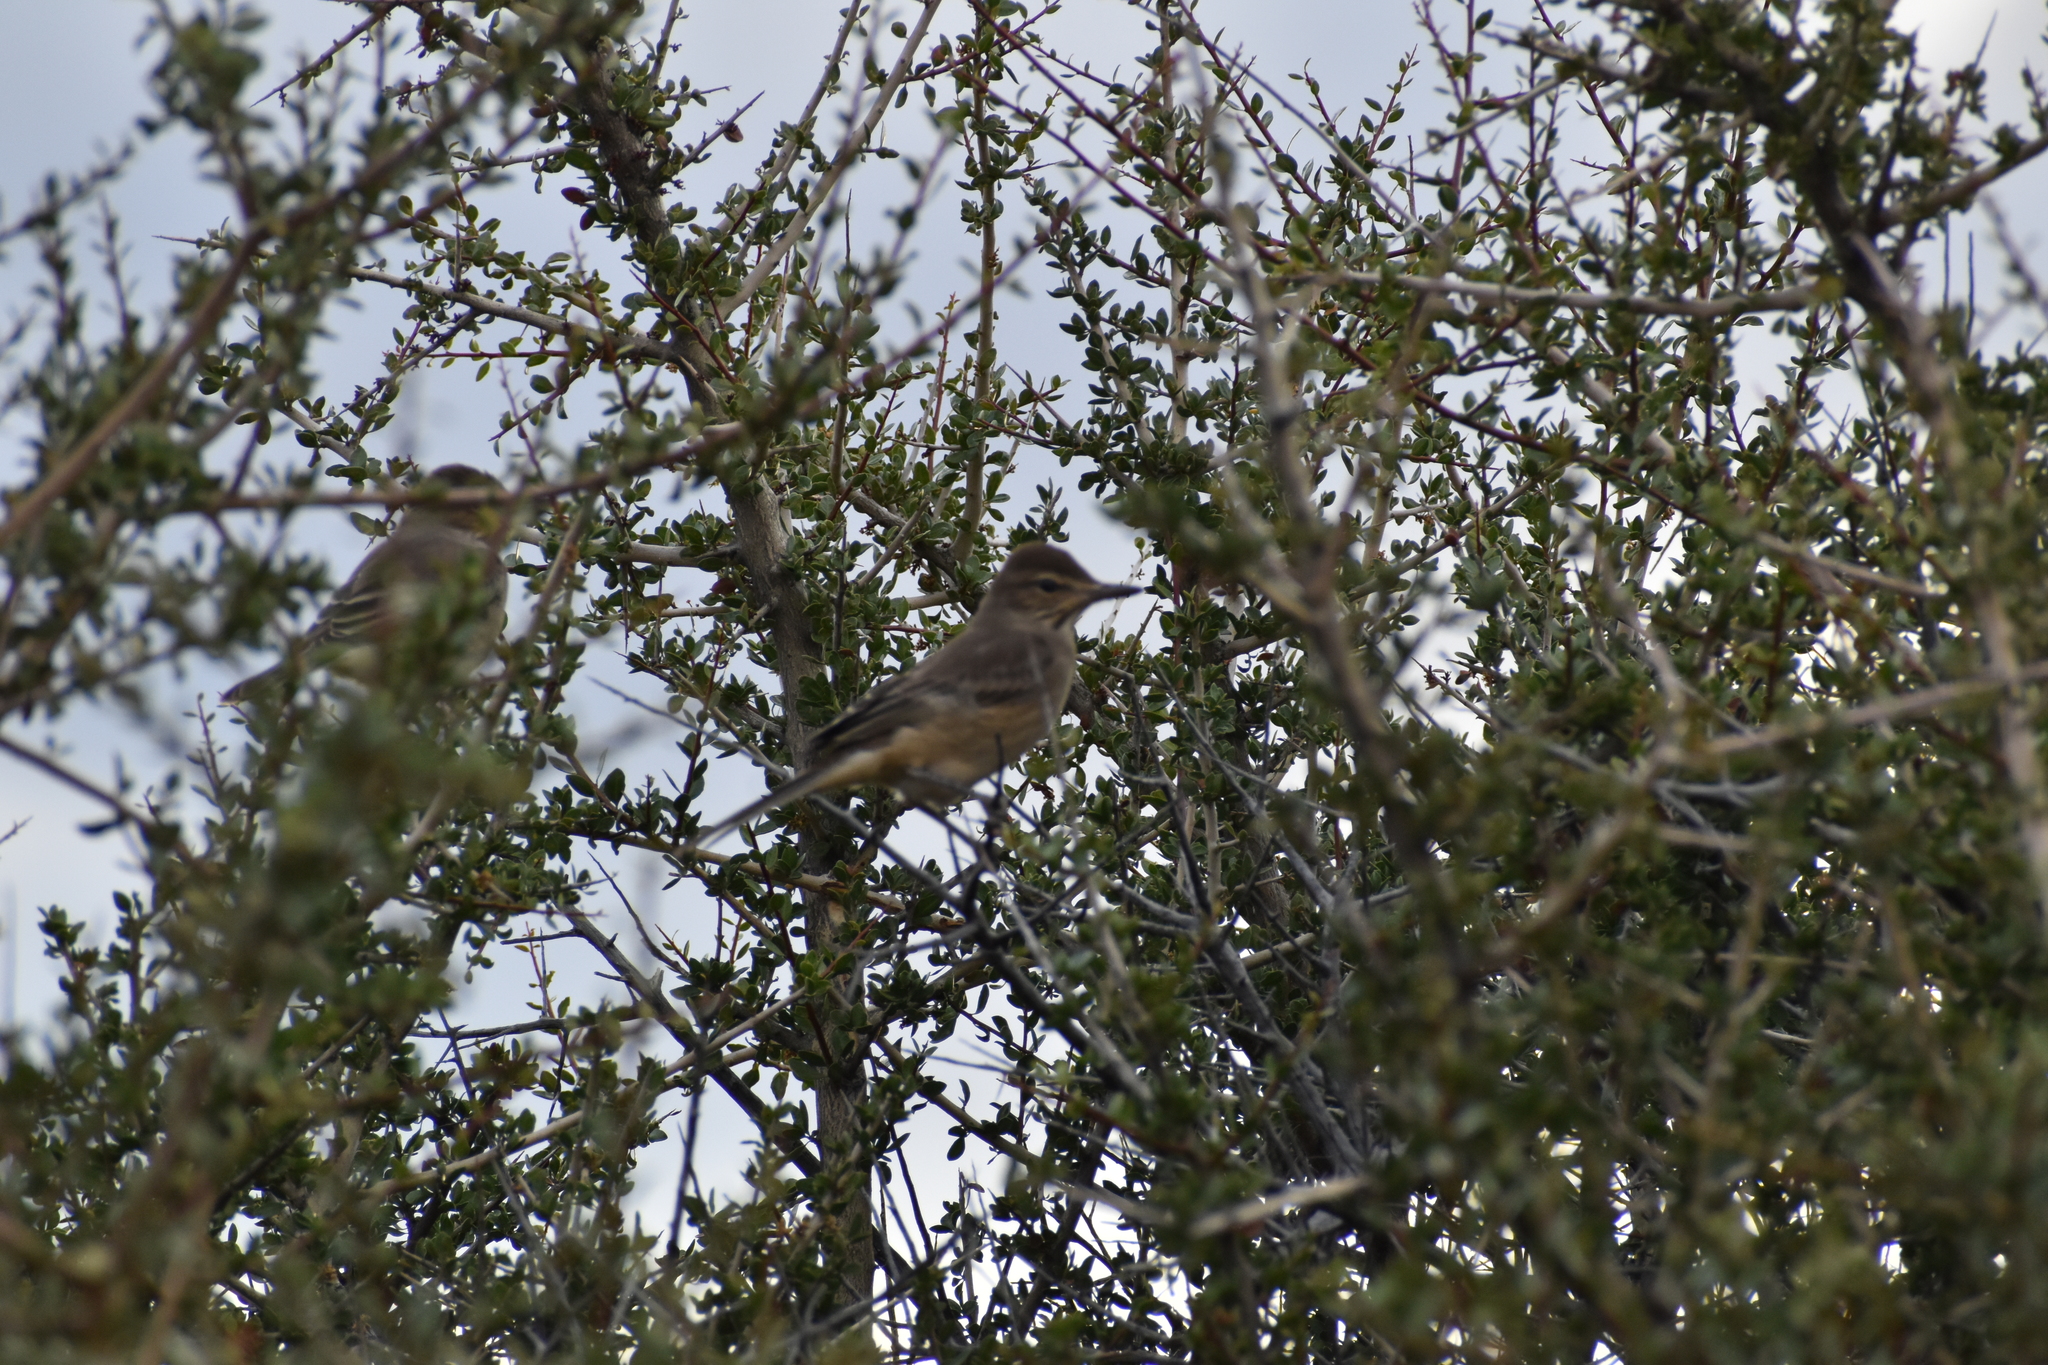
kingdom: Animalia
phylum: Chordata
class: Aves
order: Passeriformes
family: Tyrannidae
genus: Agriornis
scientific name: Agriornis micropterus
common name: Grey-bellied shrike-tyrant
